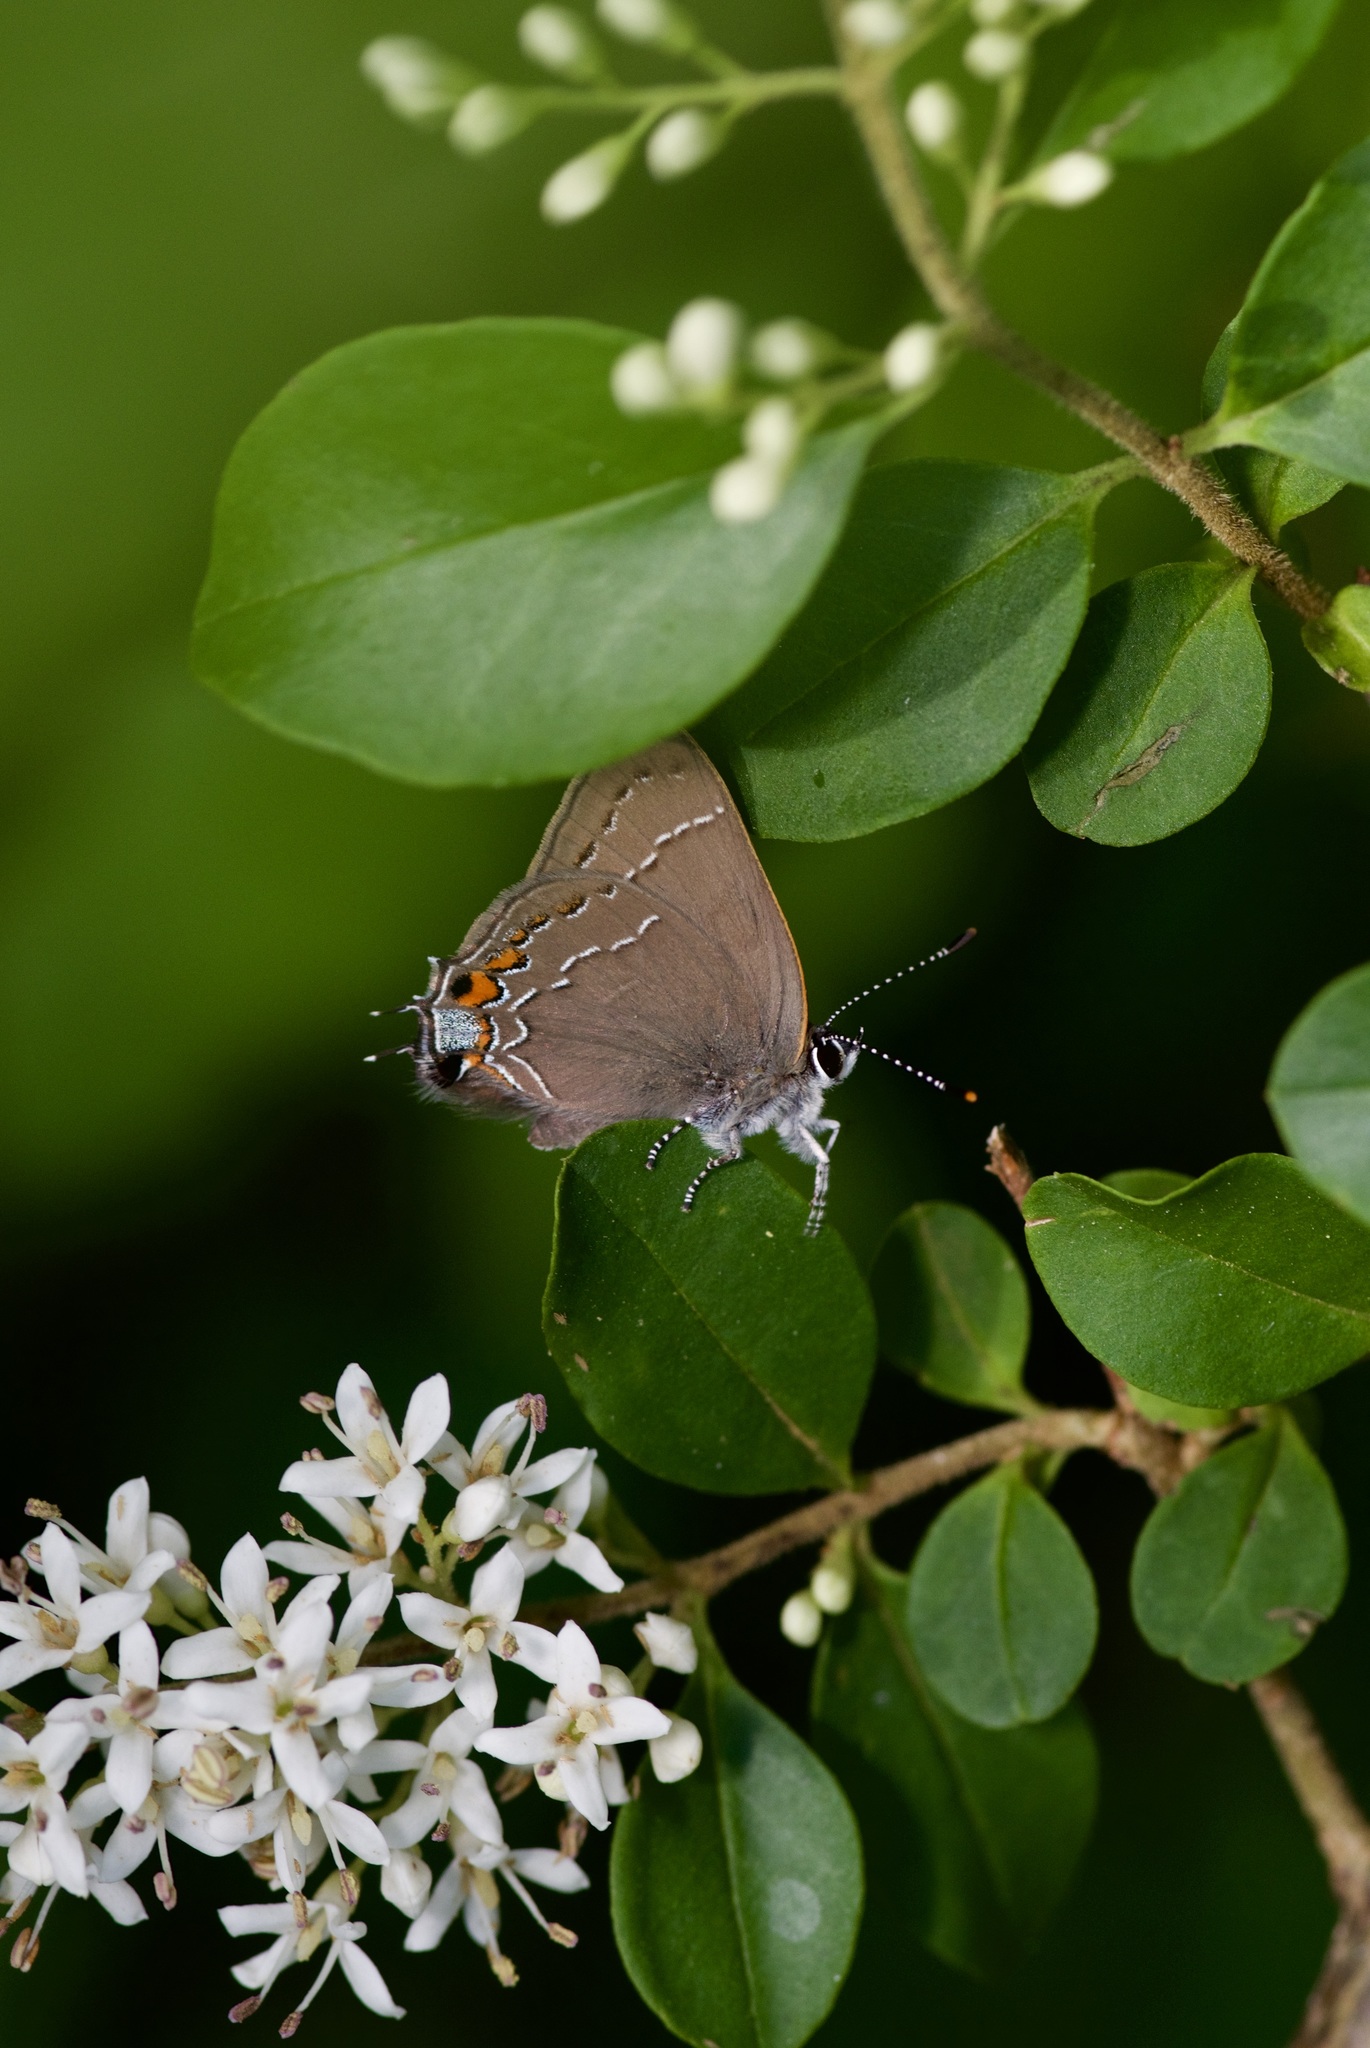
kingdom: Animalia
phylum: Arthropoda
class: Insecta
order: Lepidoptera
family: Lycaenidae
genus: Fixsenia
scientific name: Fixsenia favonius
